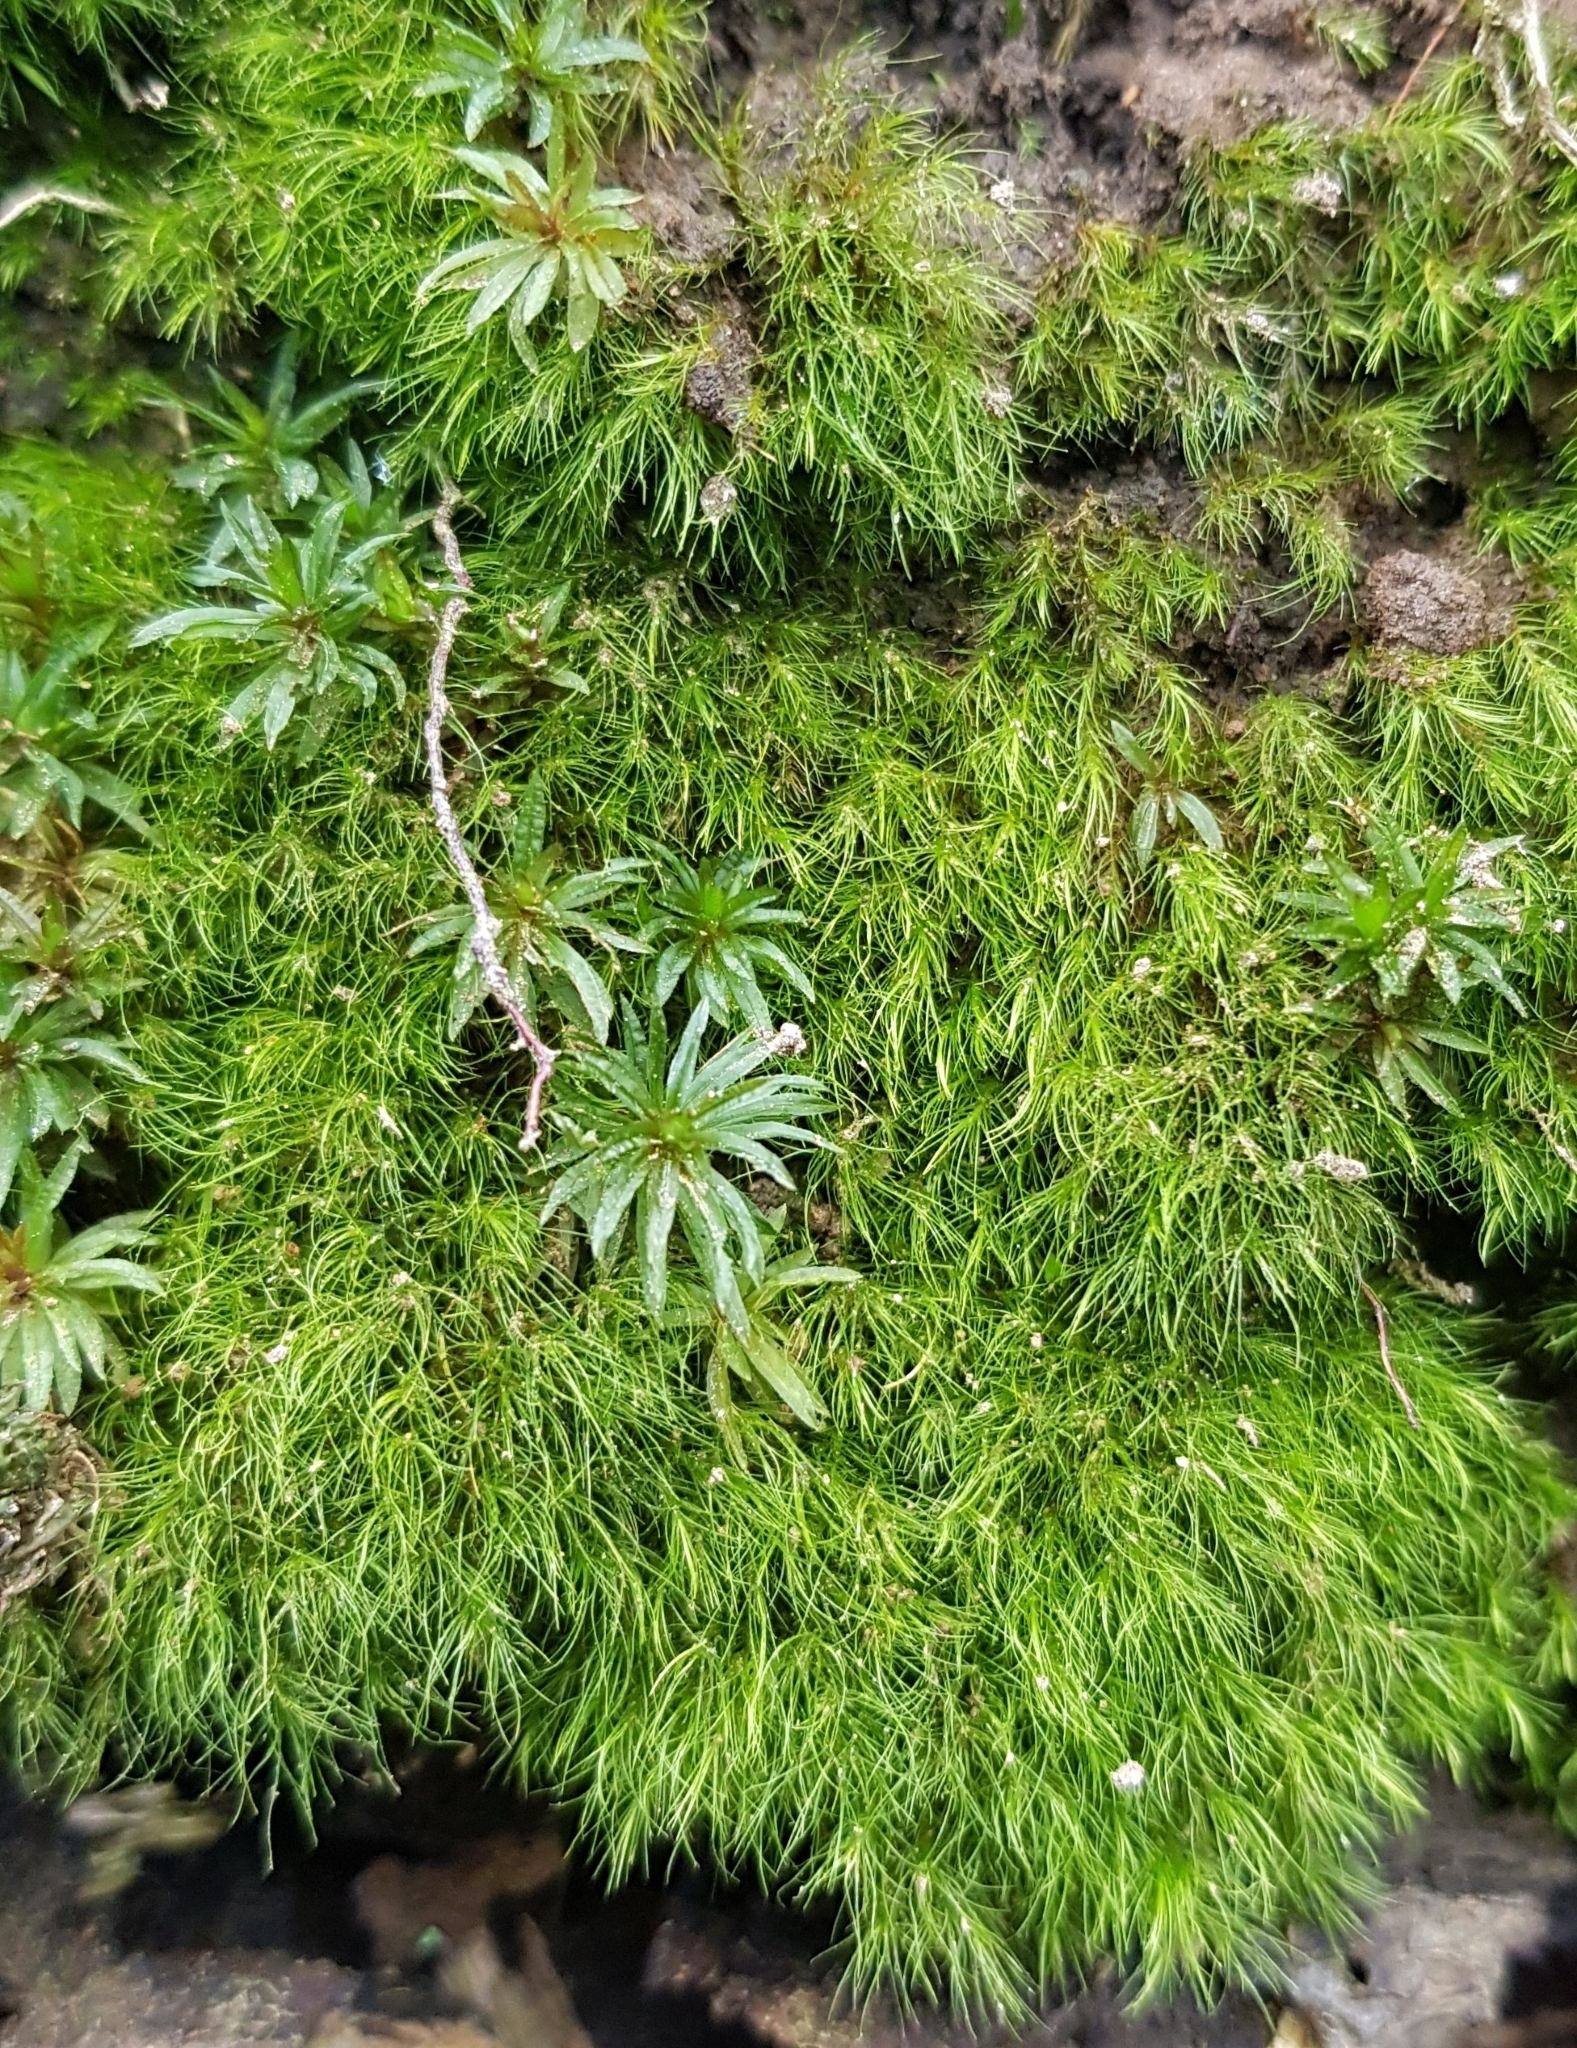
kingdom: Plantae
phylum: Bryophyta
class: Bryopsida
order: Dicranales
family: Dicranellaceae
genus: Dicranella
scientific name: Dicranella heteromalla
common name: Silky forklet moss
